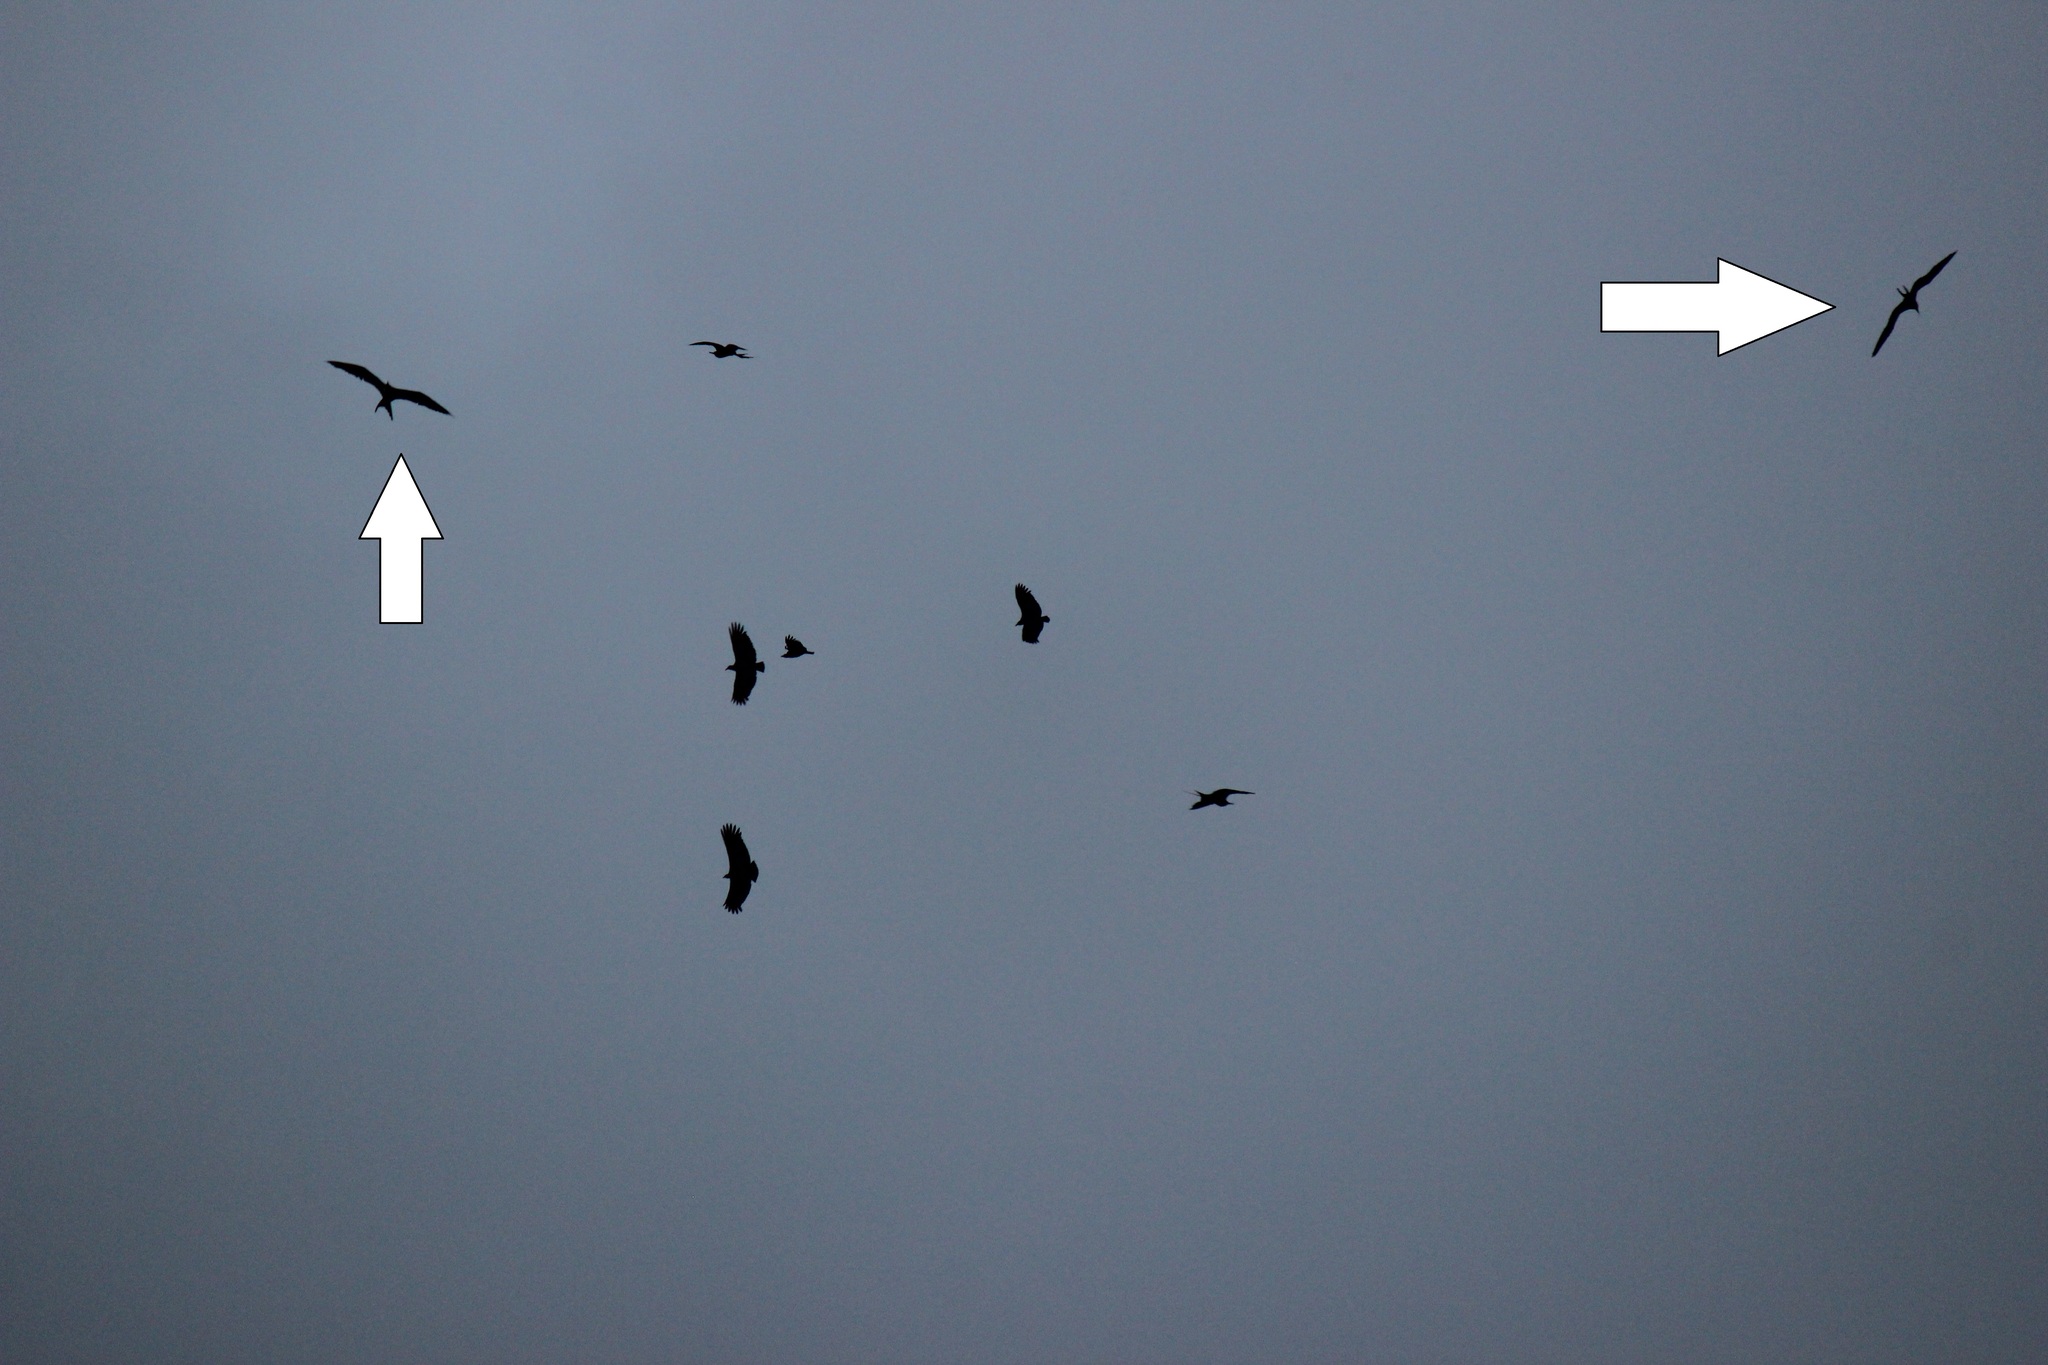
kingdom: Animalia
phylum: Chordata
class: Aves
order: Suliformes
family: Fregatidae
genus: Fregata
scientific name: Fregata magnificens
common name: Magnificent frigatebird
